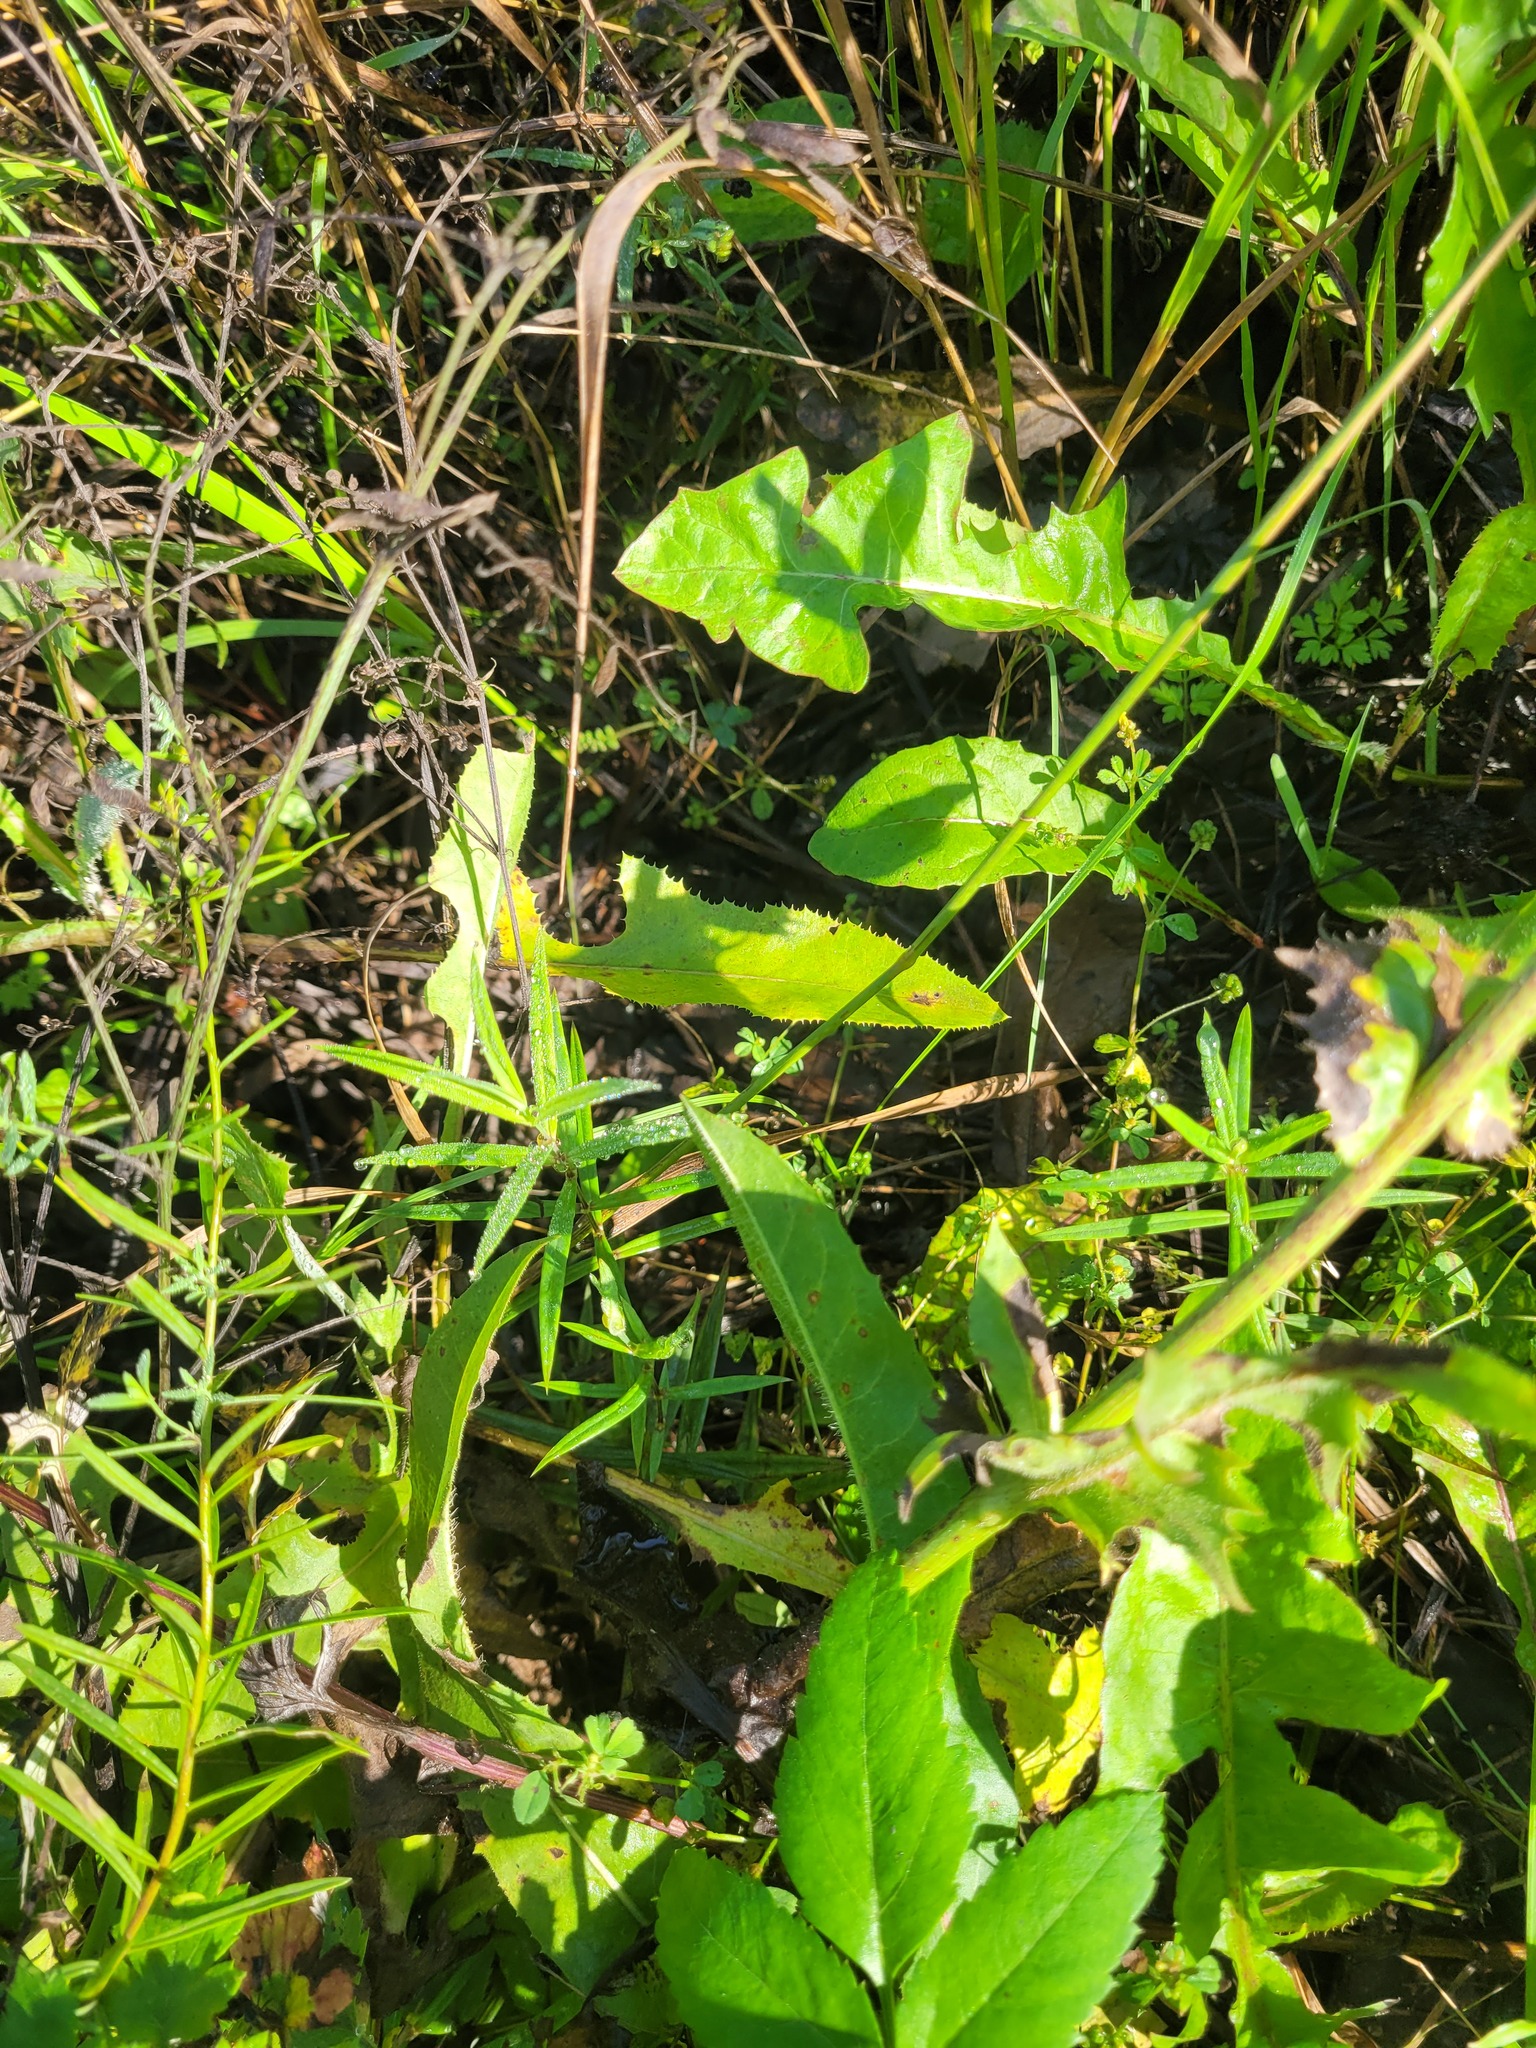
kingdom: Plantae
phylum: Tracheophyta
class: Magnoliopsida
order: Caryophyllales
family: Caryophyllaceae
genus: Rabelera
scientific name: Rabelera holostea
